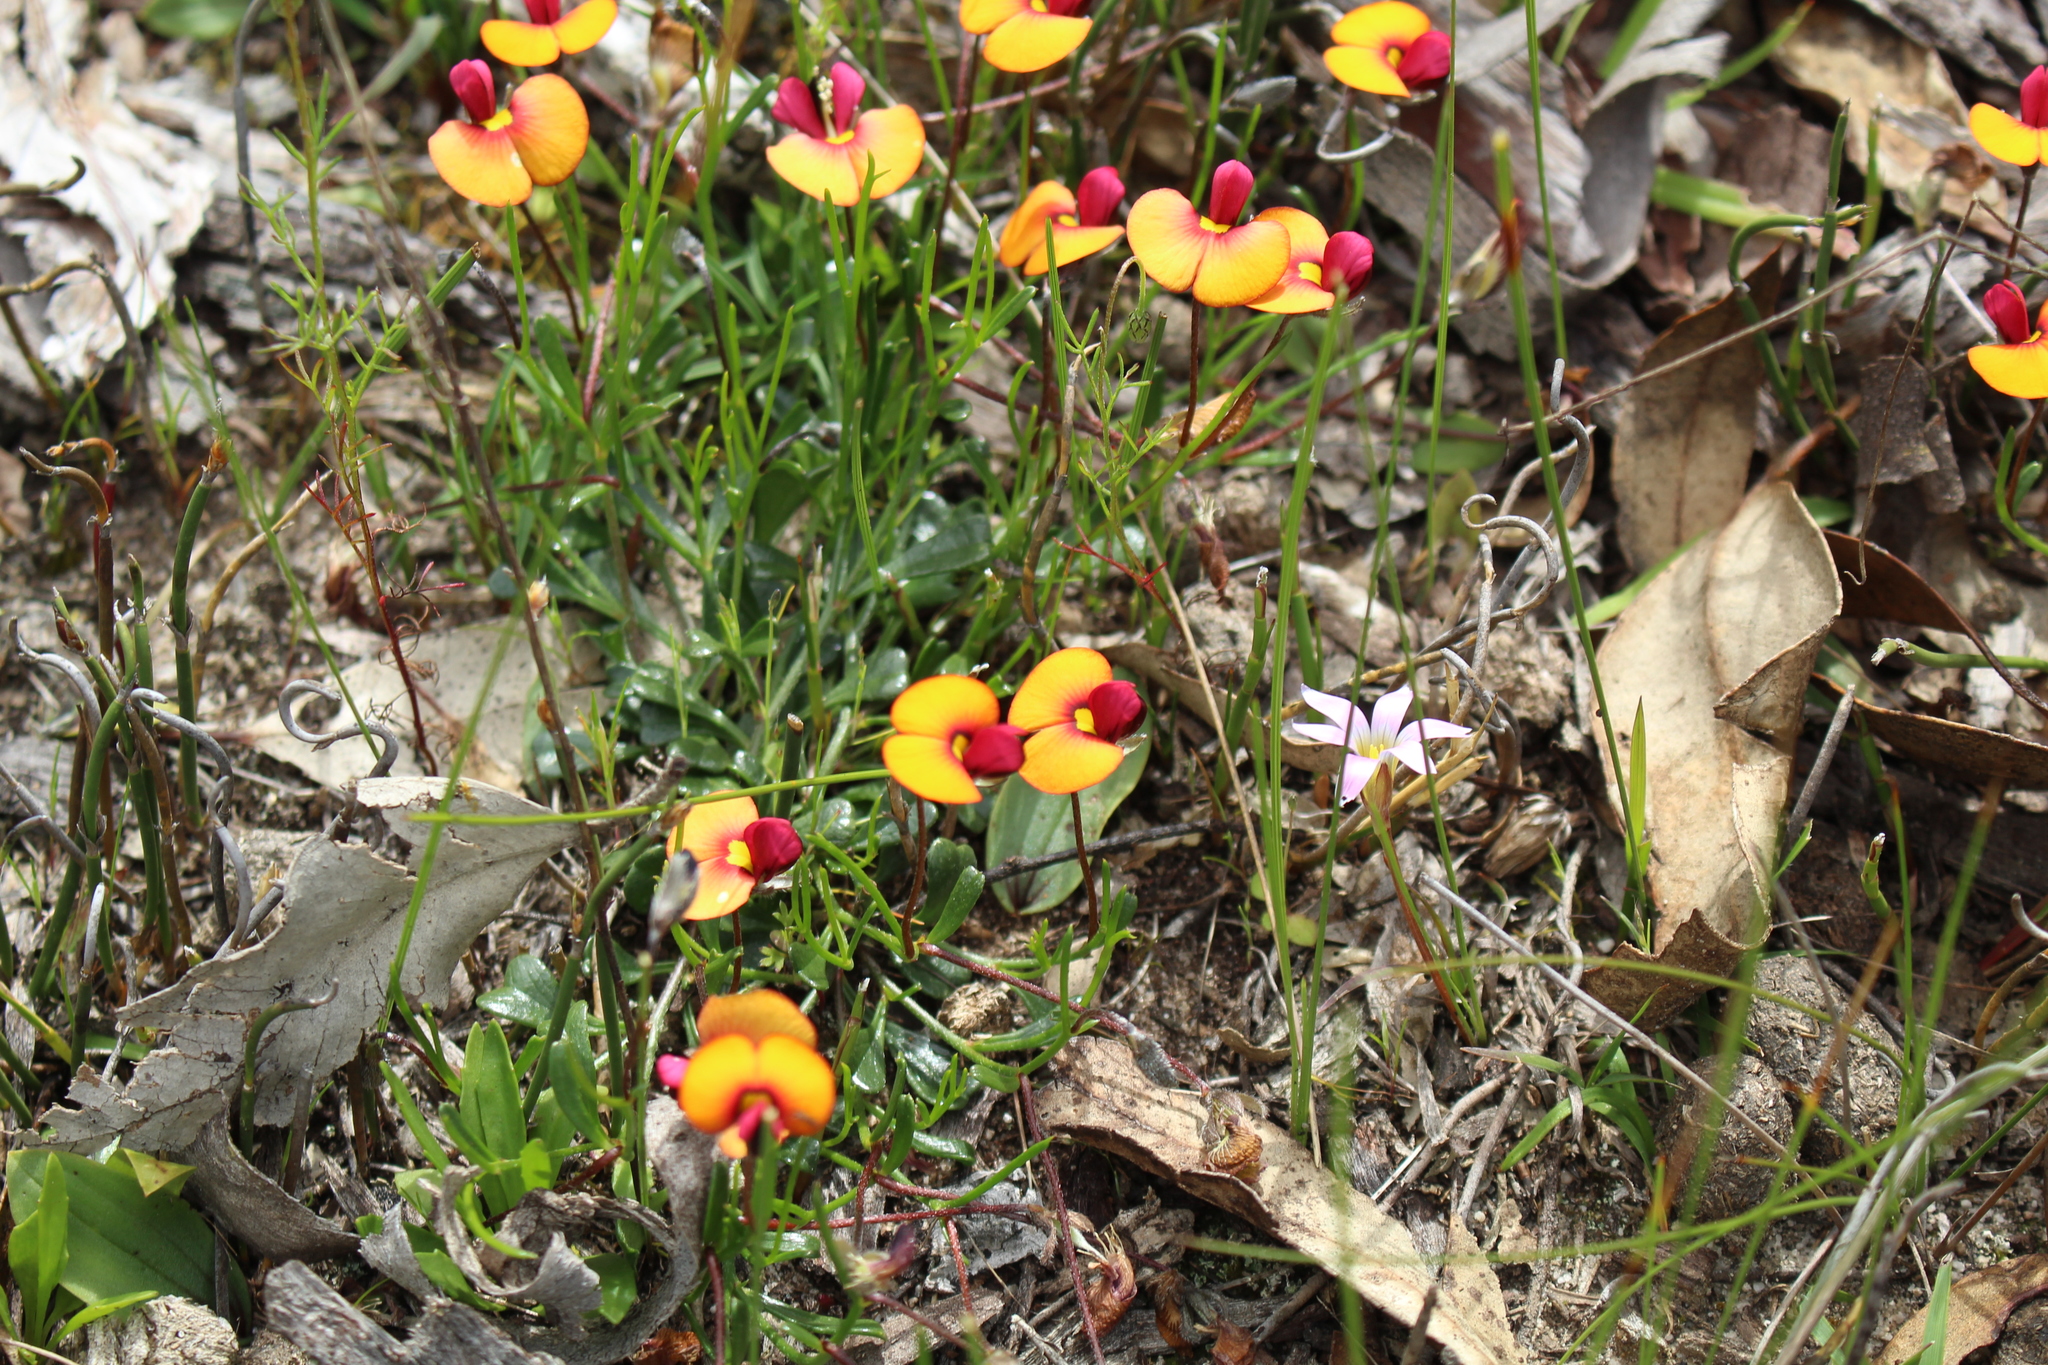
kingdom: Plantae
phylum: Tracheophyta
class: Magnoliopsida
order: Fabales
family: Fabaceae
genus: Isotropis
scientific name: Isotropis cuneifolia
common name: Granny bonnets
